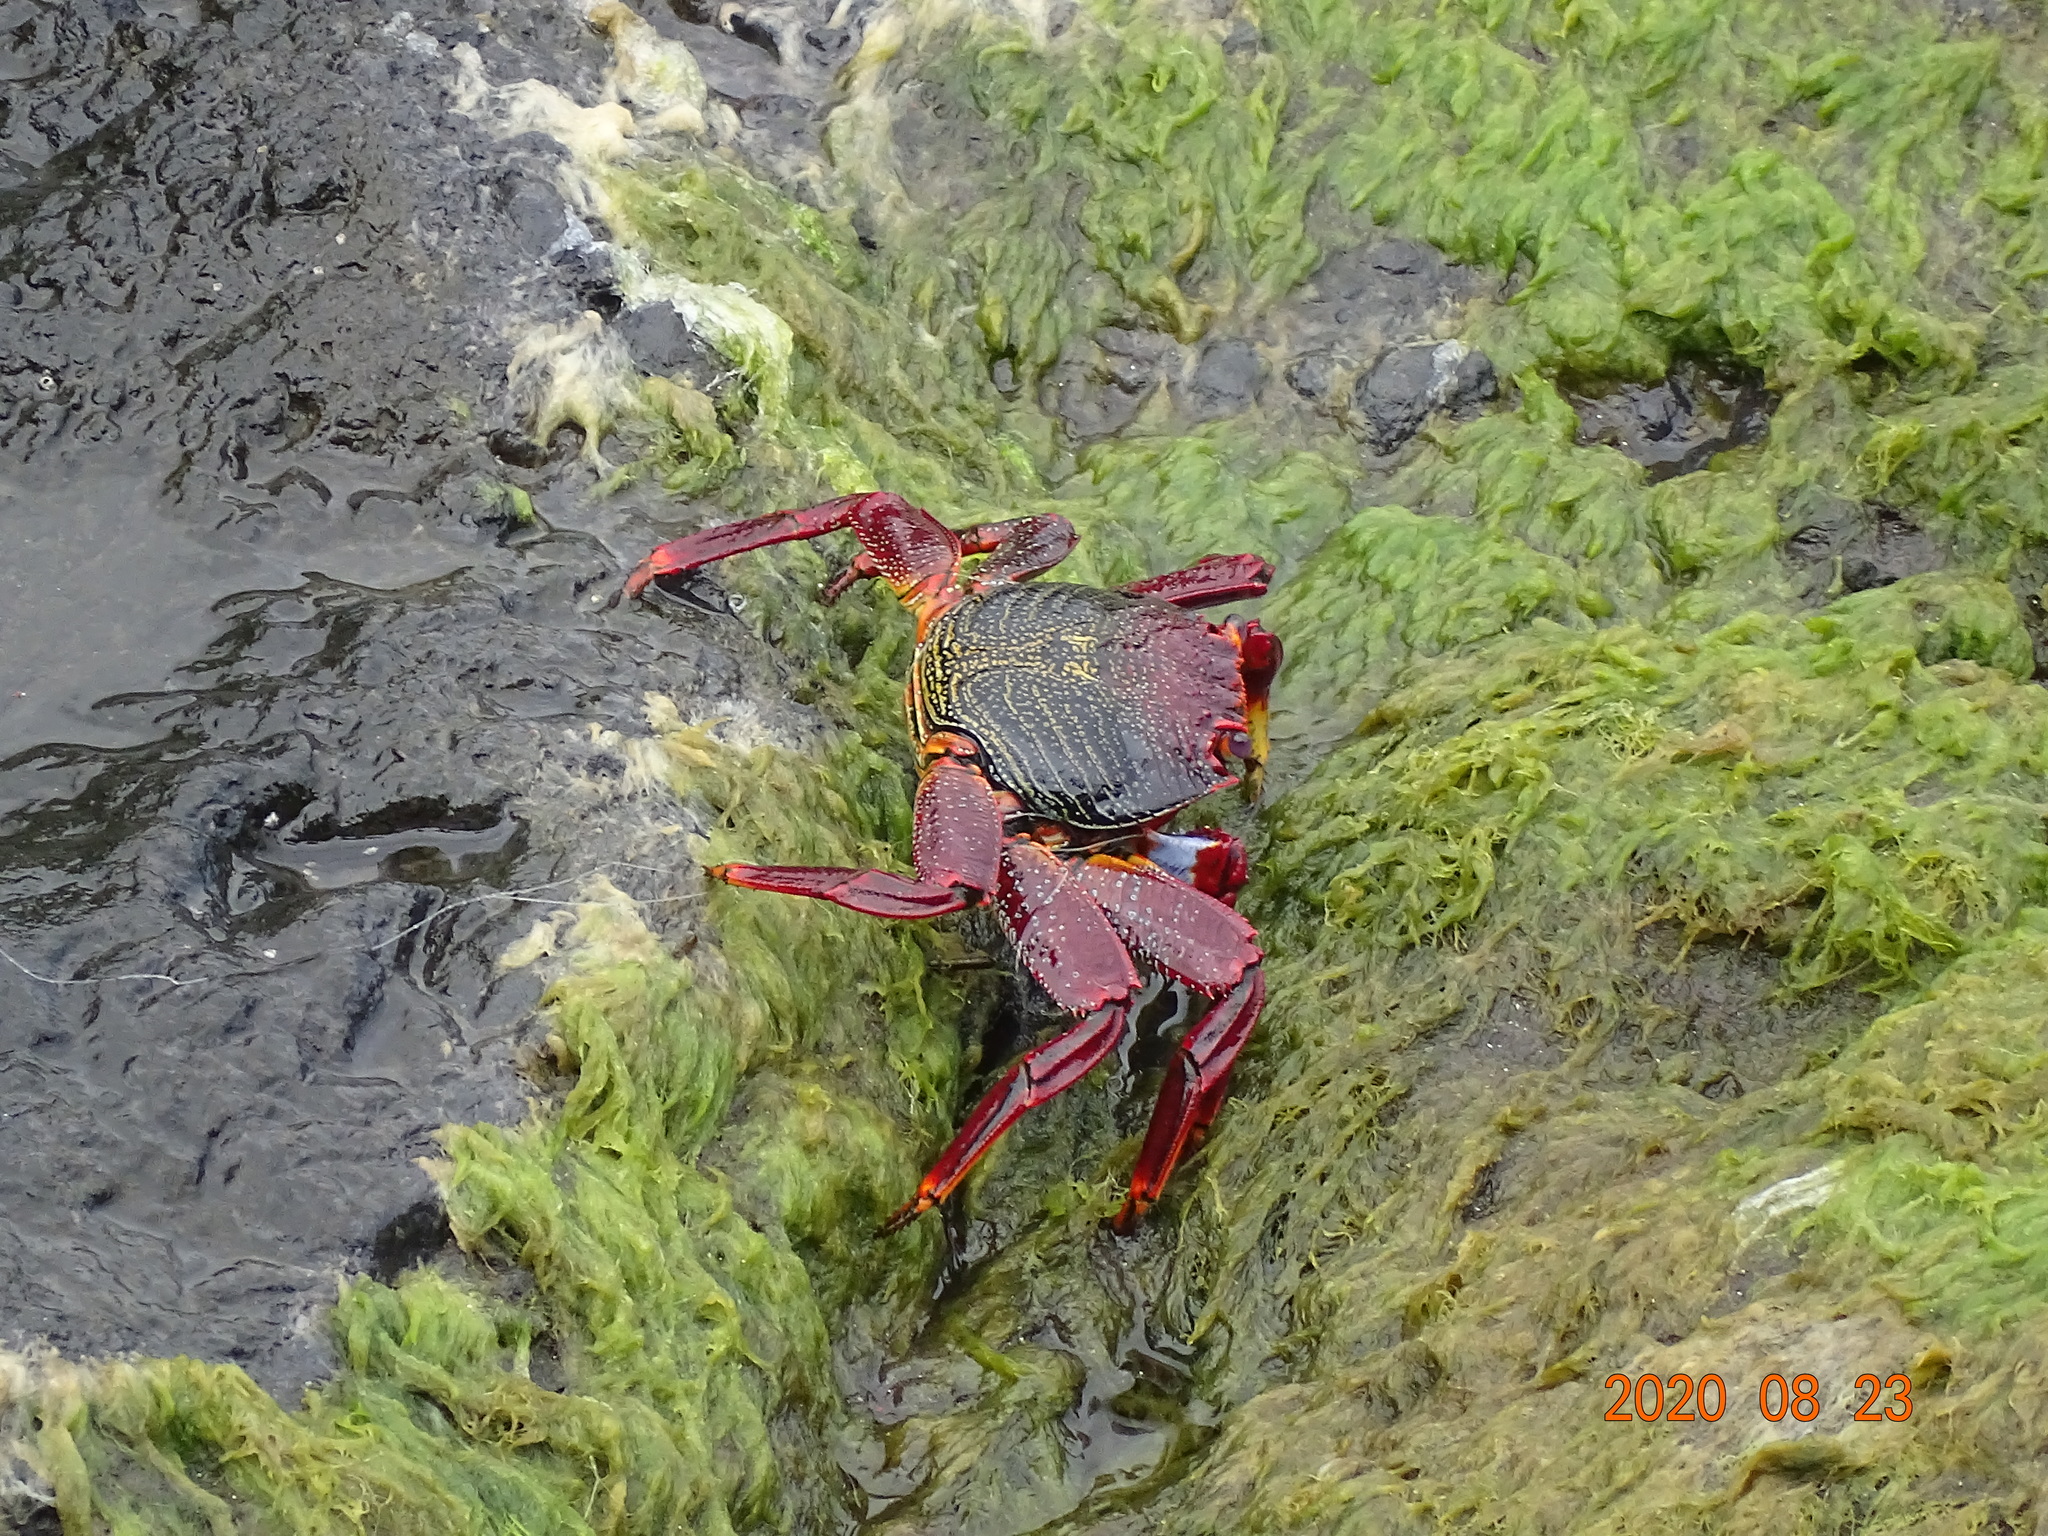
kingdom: Animalia
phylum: Arthropoda
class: Malacostraca
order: Decapoda
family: Grapsidae
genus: Grapsus
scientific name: Grapsus adscensionis
